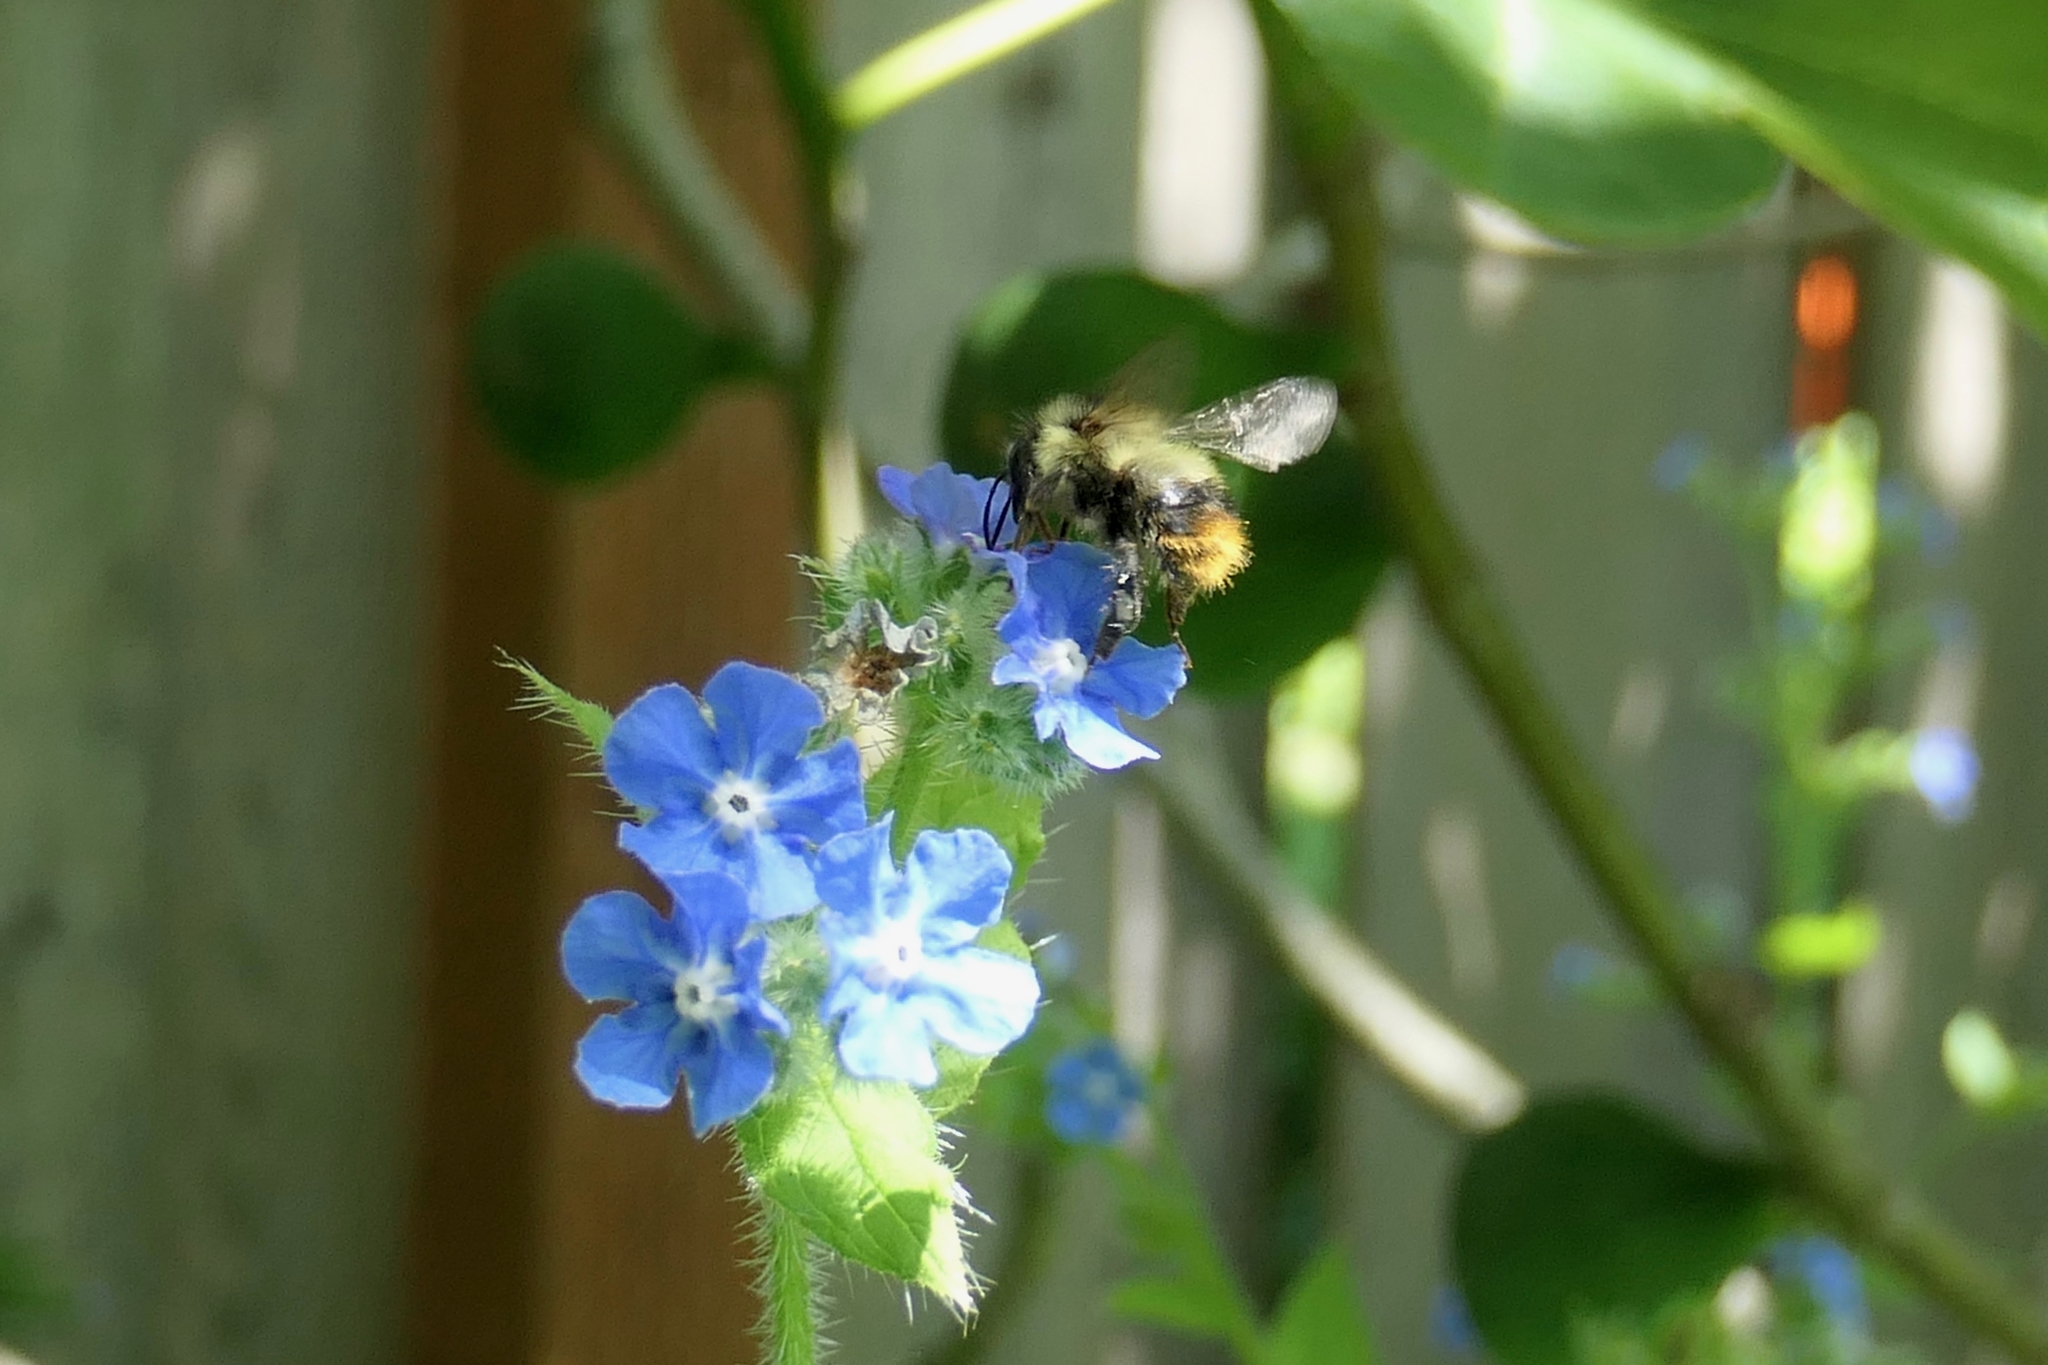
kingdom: Animalia
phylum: Arthropoda
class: Insecta
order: Hymenoptera
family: Apidae
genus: Bombus
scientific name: Bombus mixtus
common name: Fuzzy-horned bumble bee
